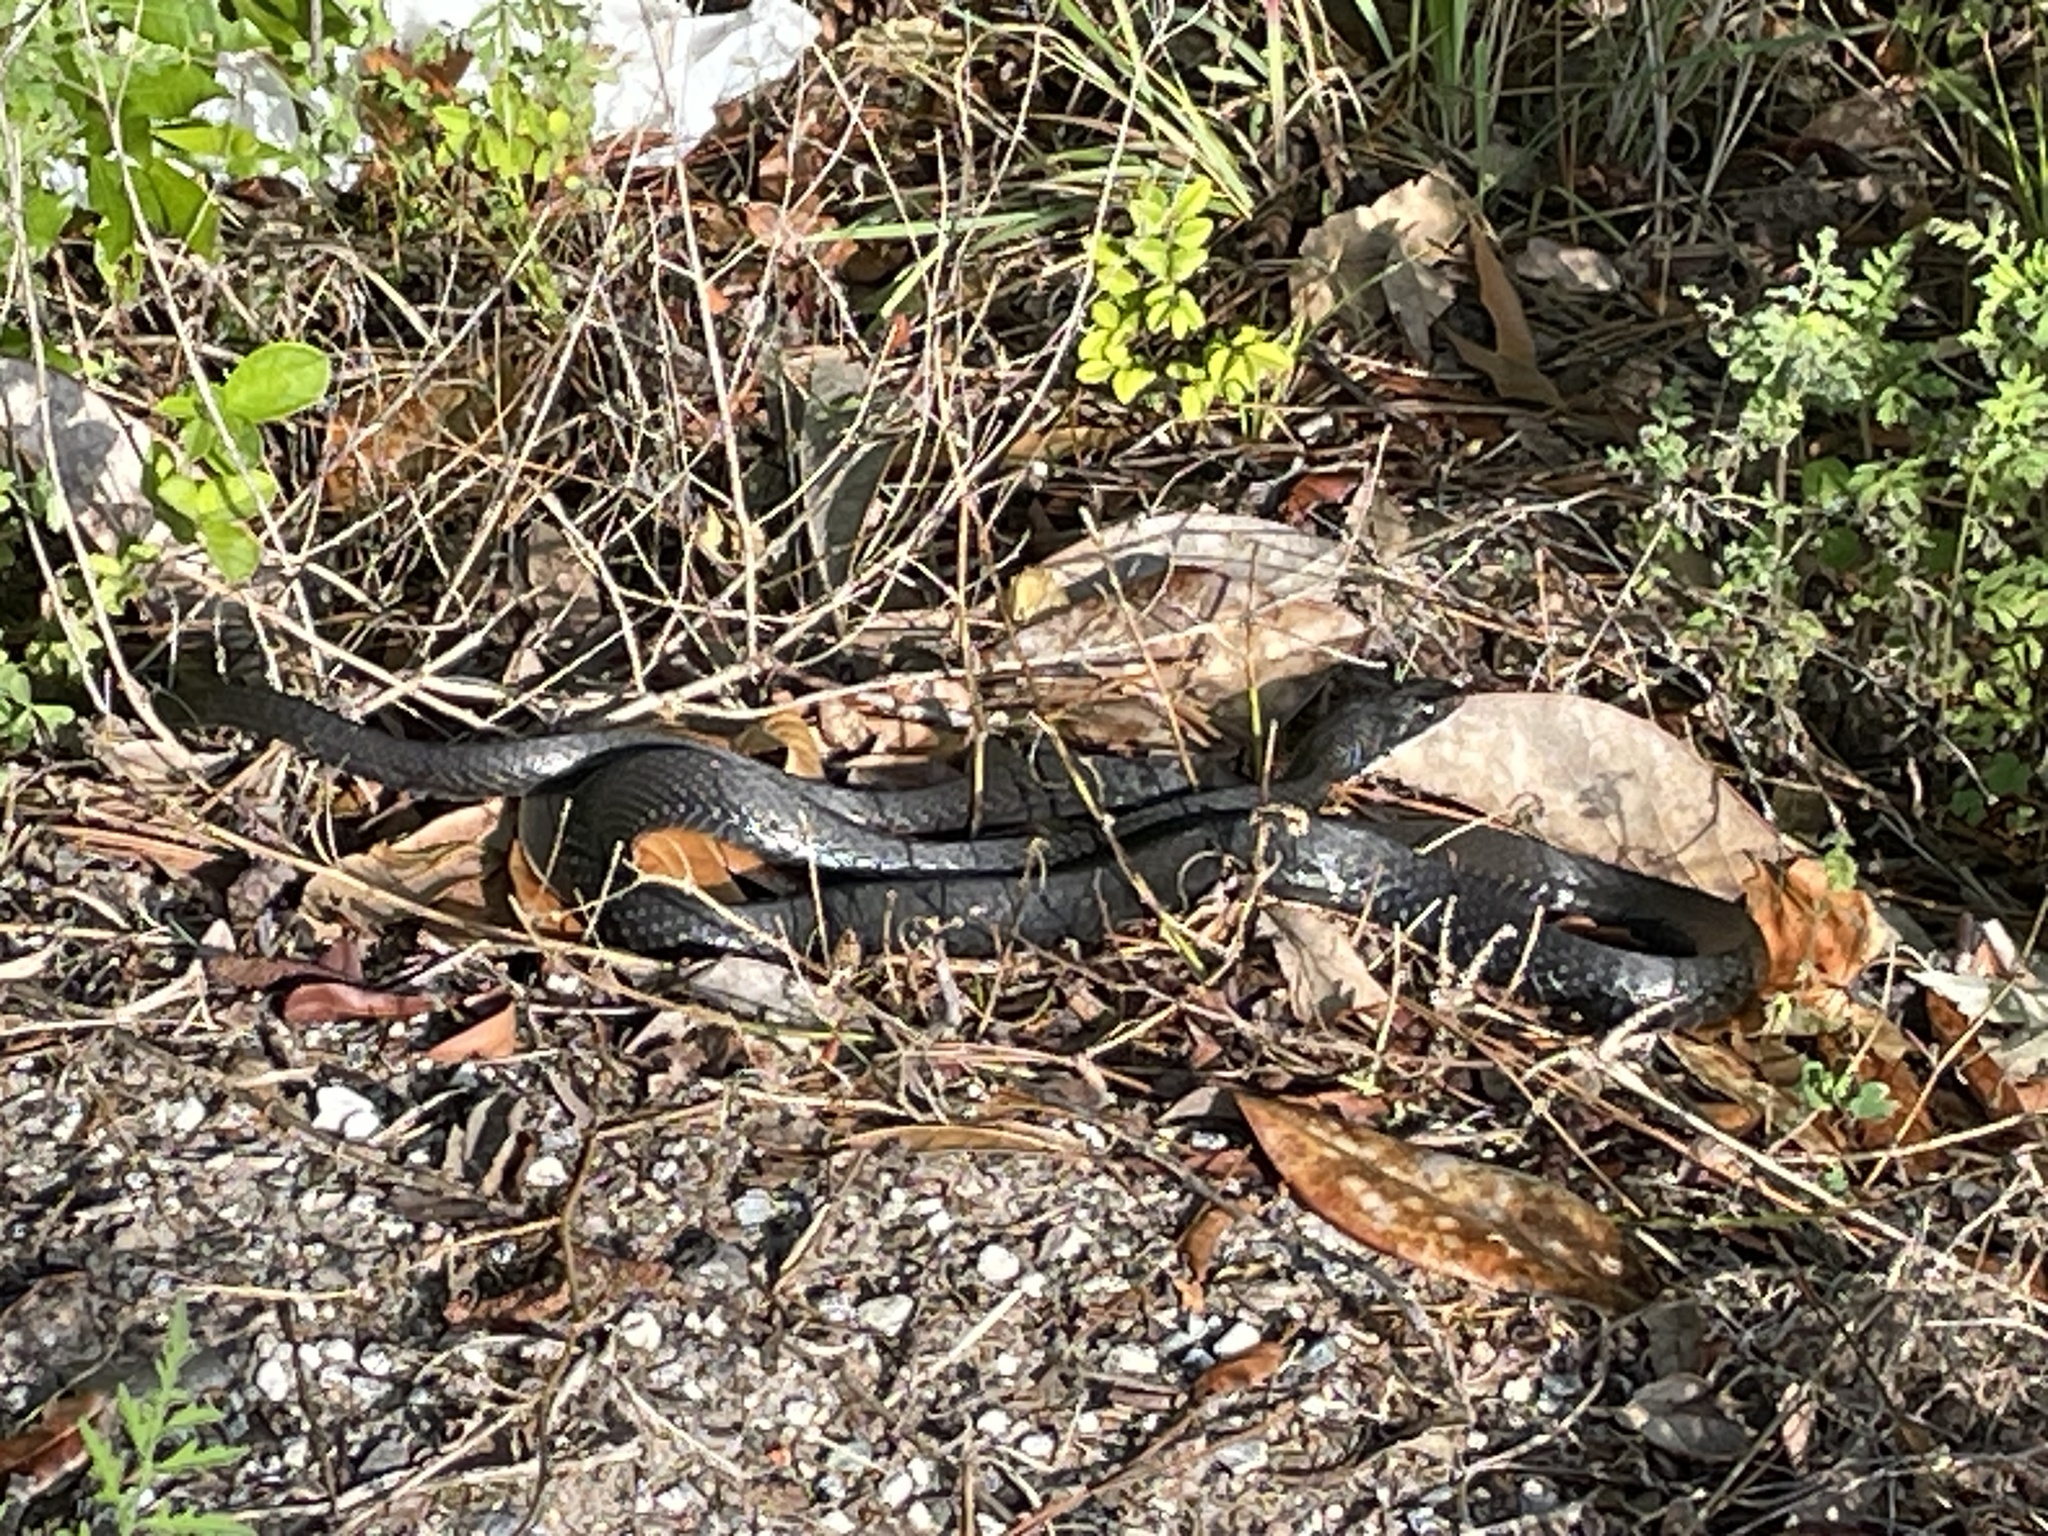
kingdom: Animalia
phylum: Chordata
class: Squamata
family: Colubridae
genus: Coluber
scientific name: Coluber constrictor
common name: Eastern racer
